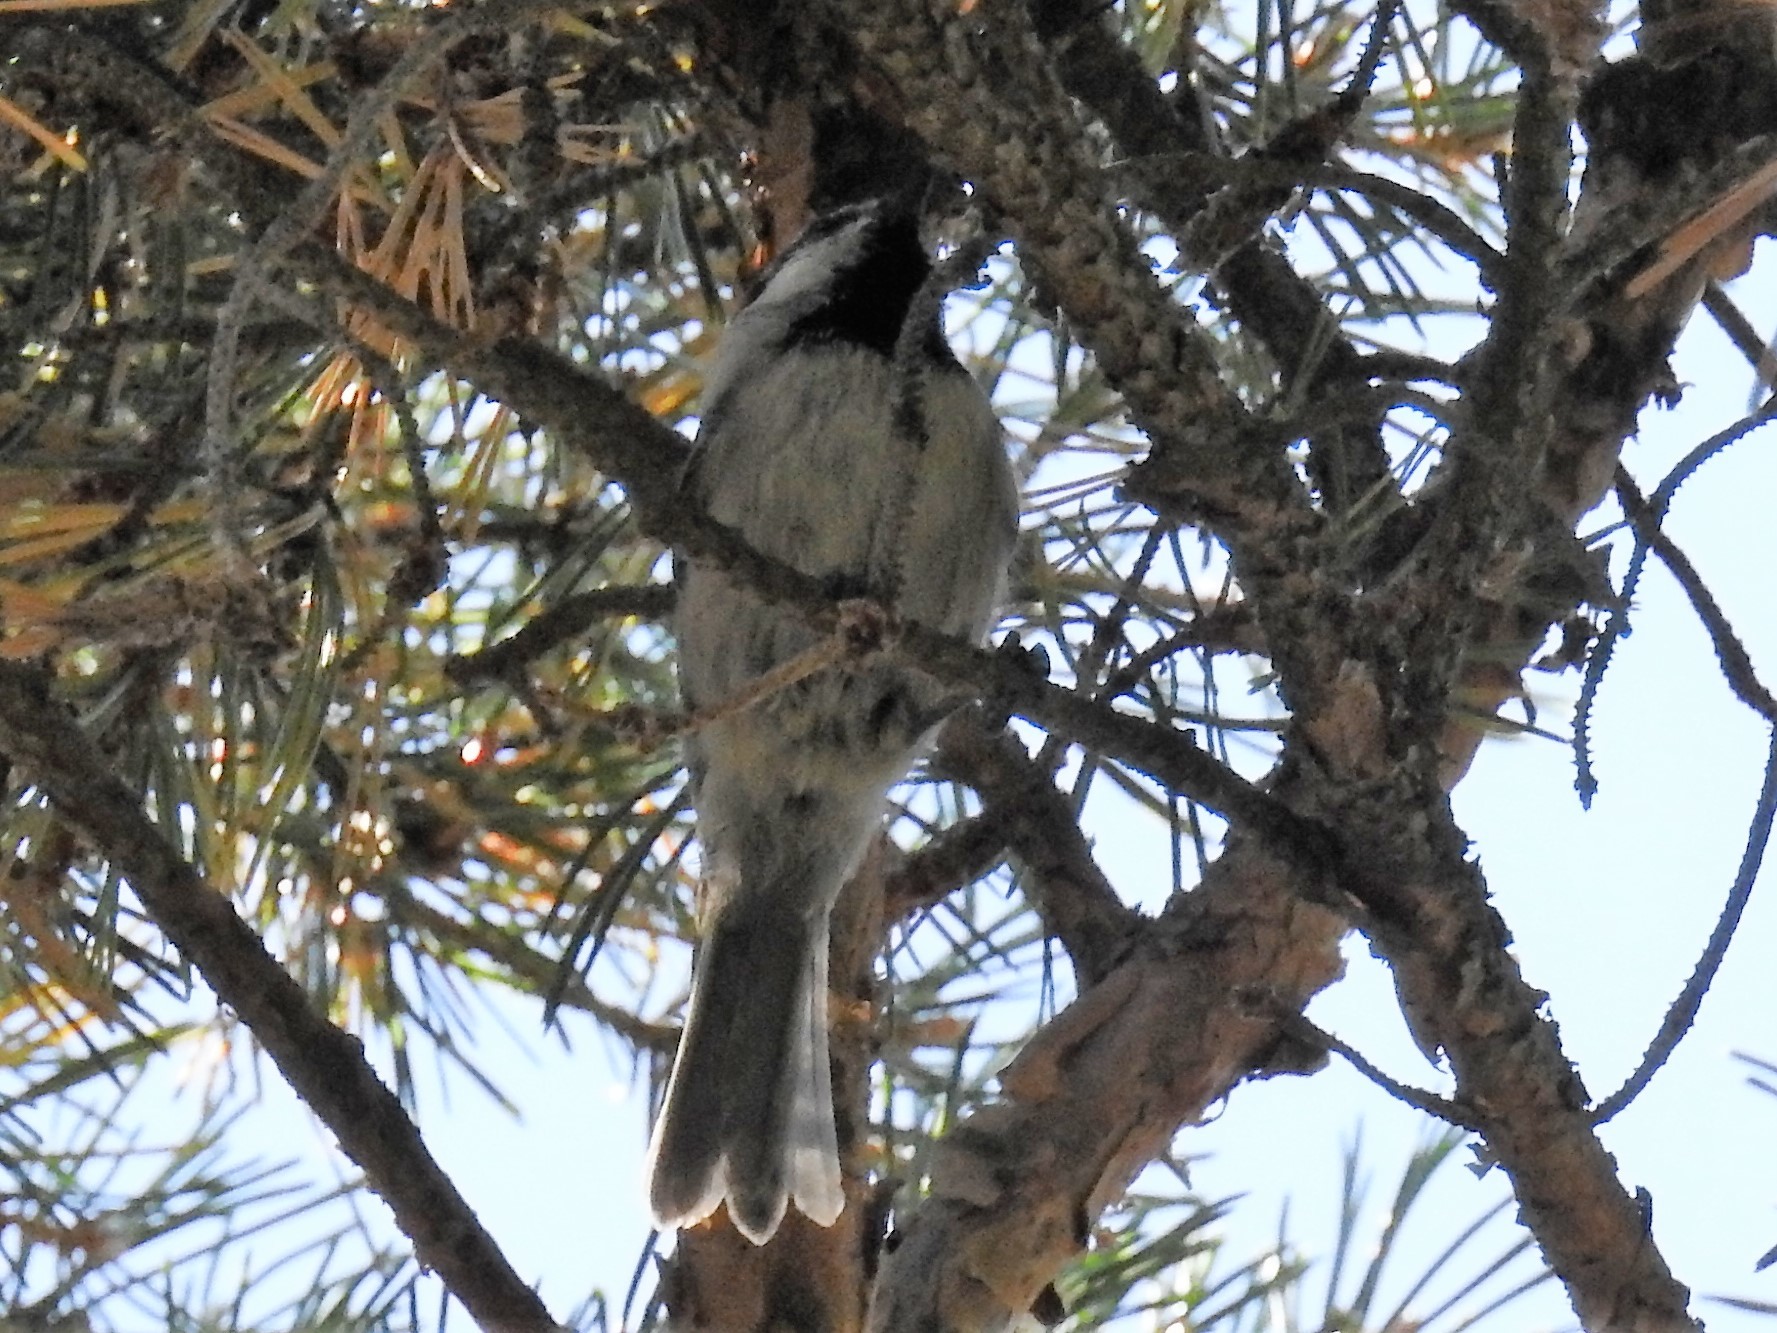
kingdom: Animalia
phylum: Chordata
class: Aves
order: Passeriformes
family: Paridae
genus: Poecile
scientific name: Poecile gambeli
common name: Mountain chickadee
